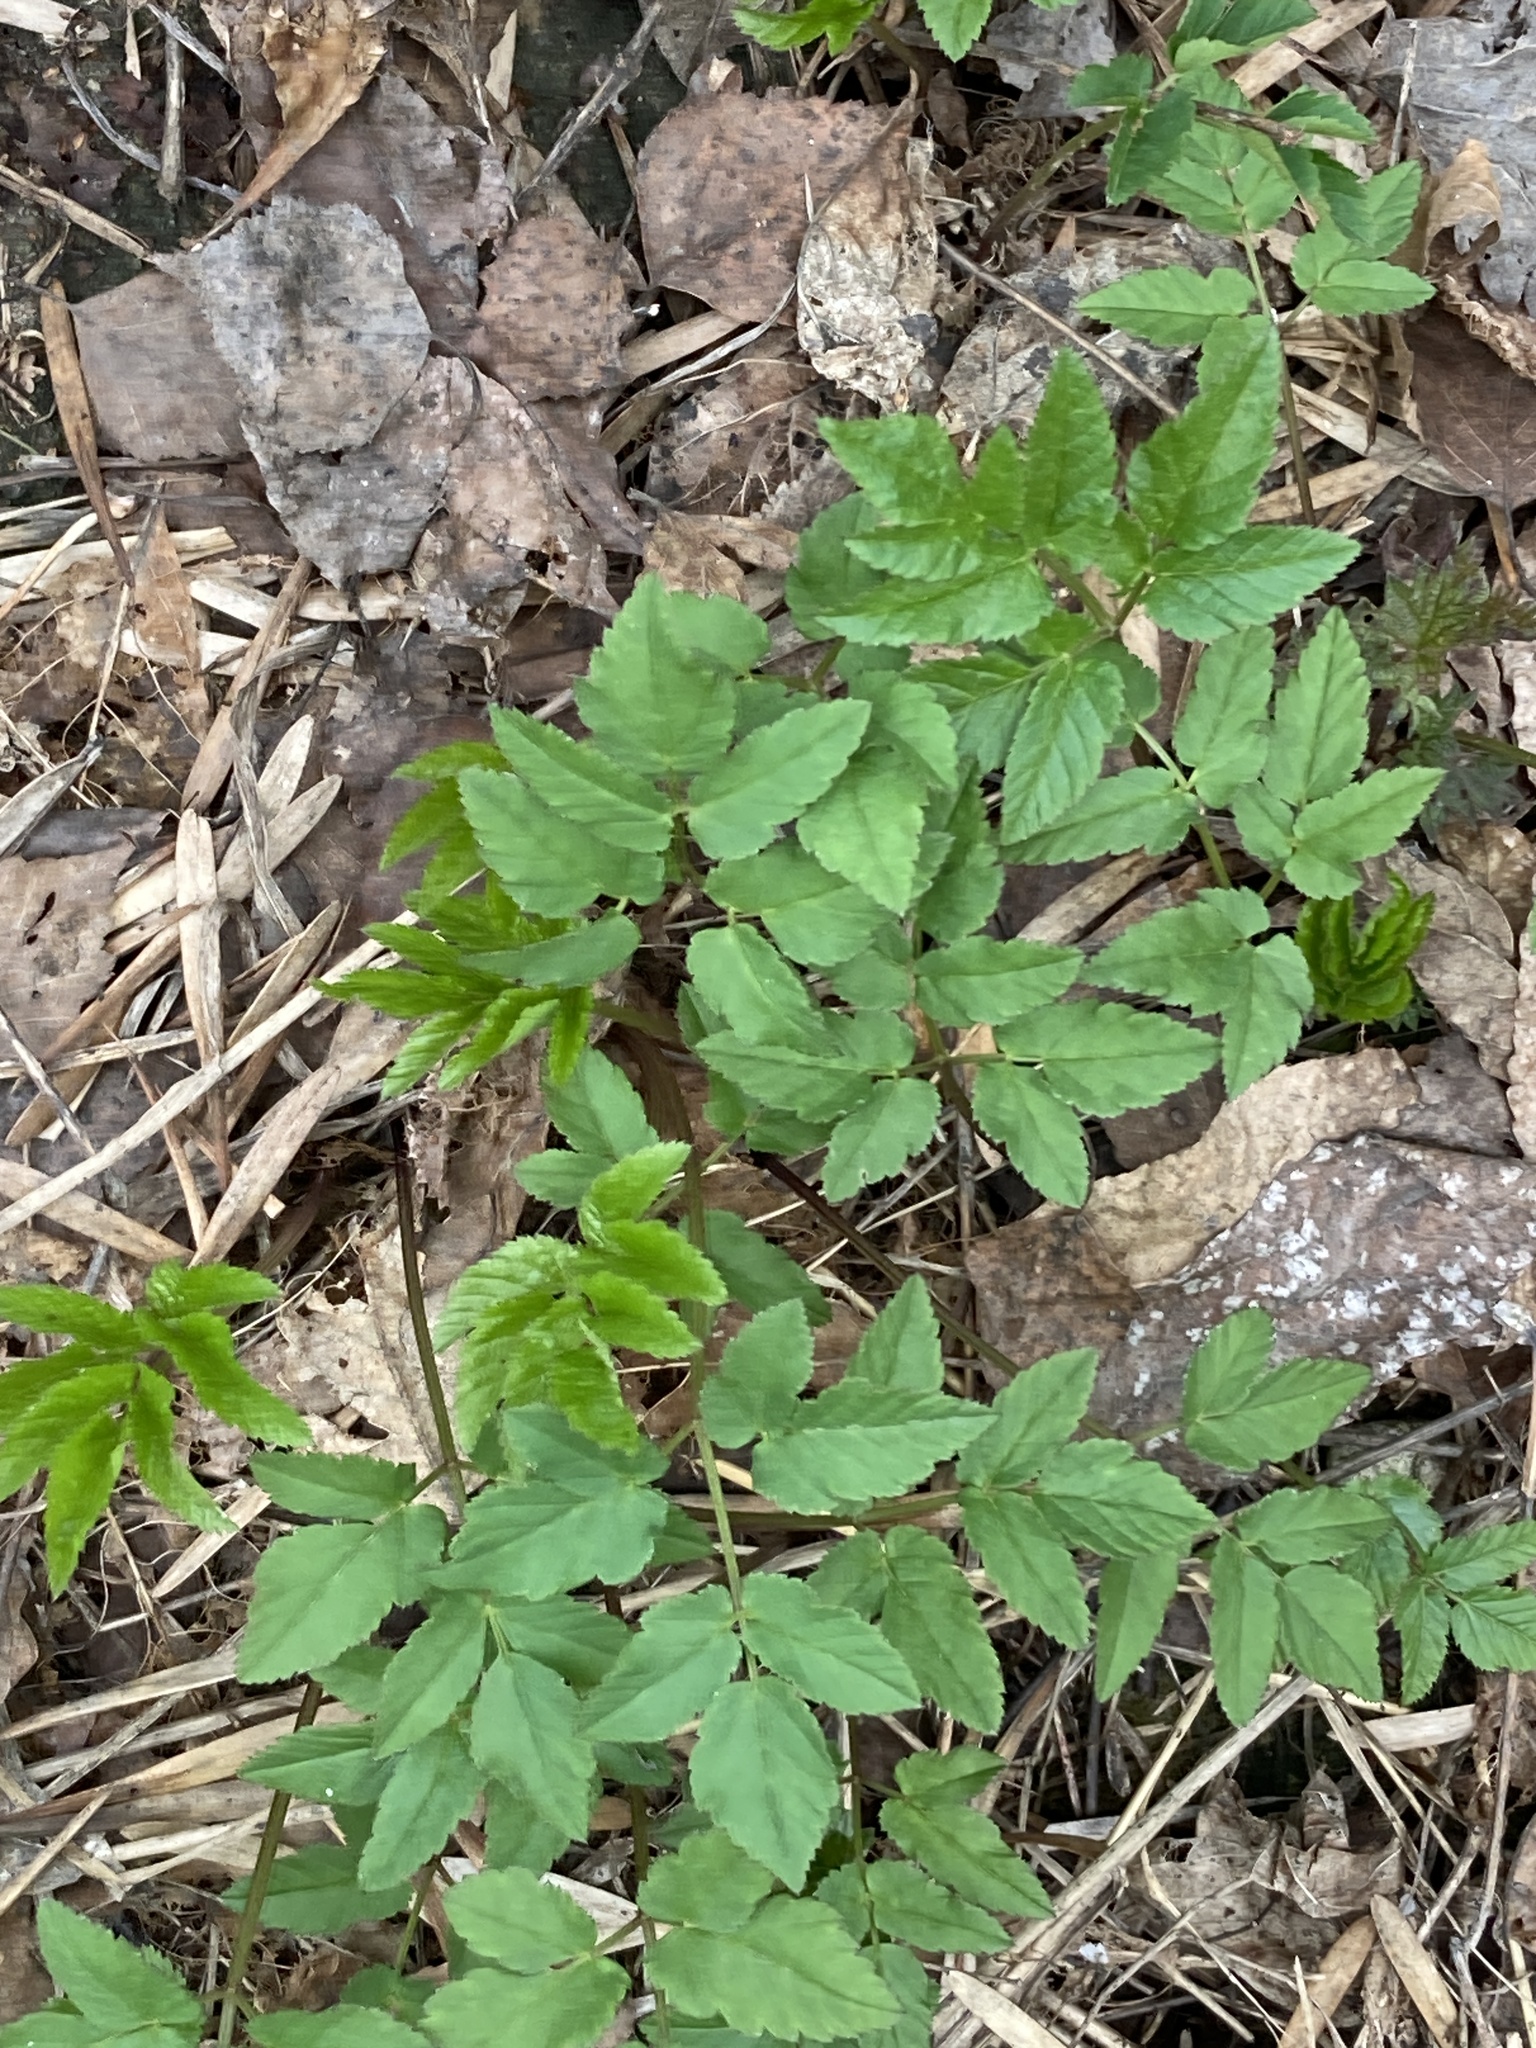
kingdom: Plantae
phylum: Tracheophyta
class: Magnoliopsida
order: Apiales
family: Apiaceae
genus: Aegopodium
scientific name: Aegopodium podagraria
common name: Ground-elder
